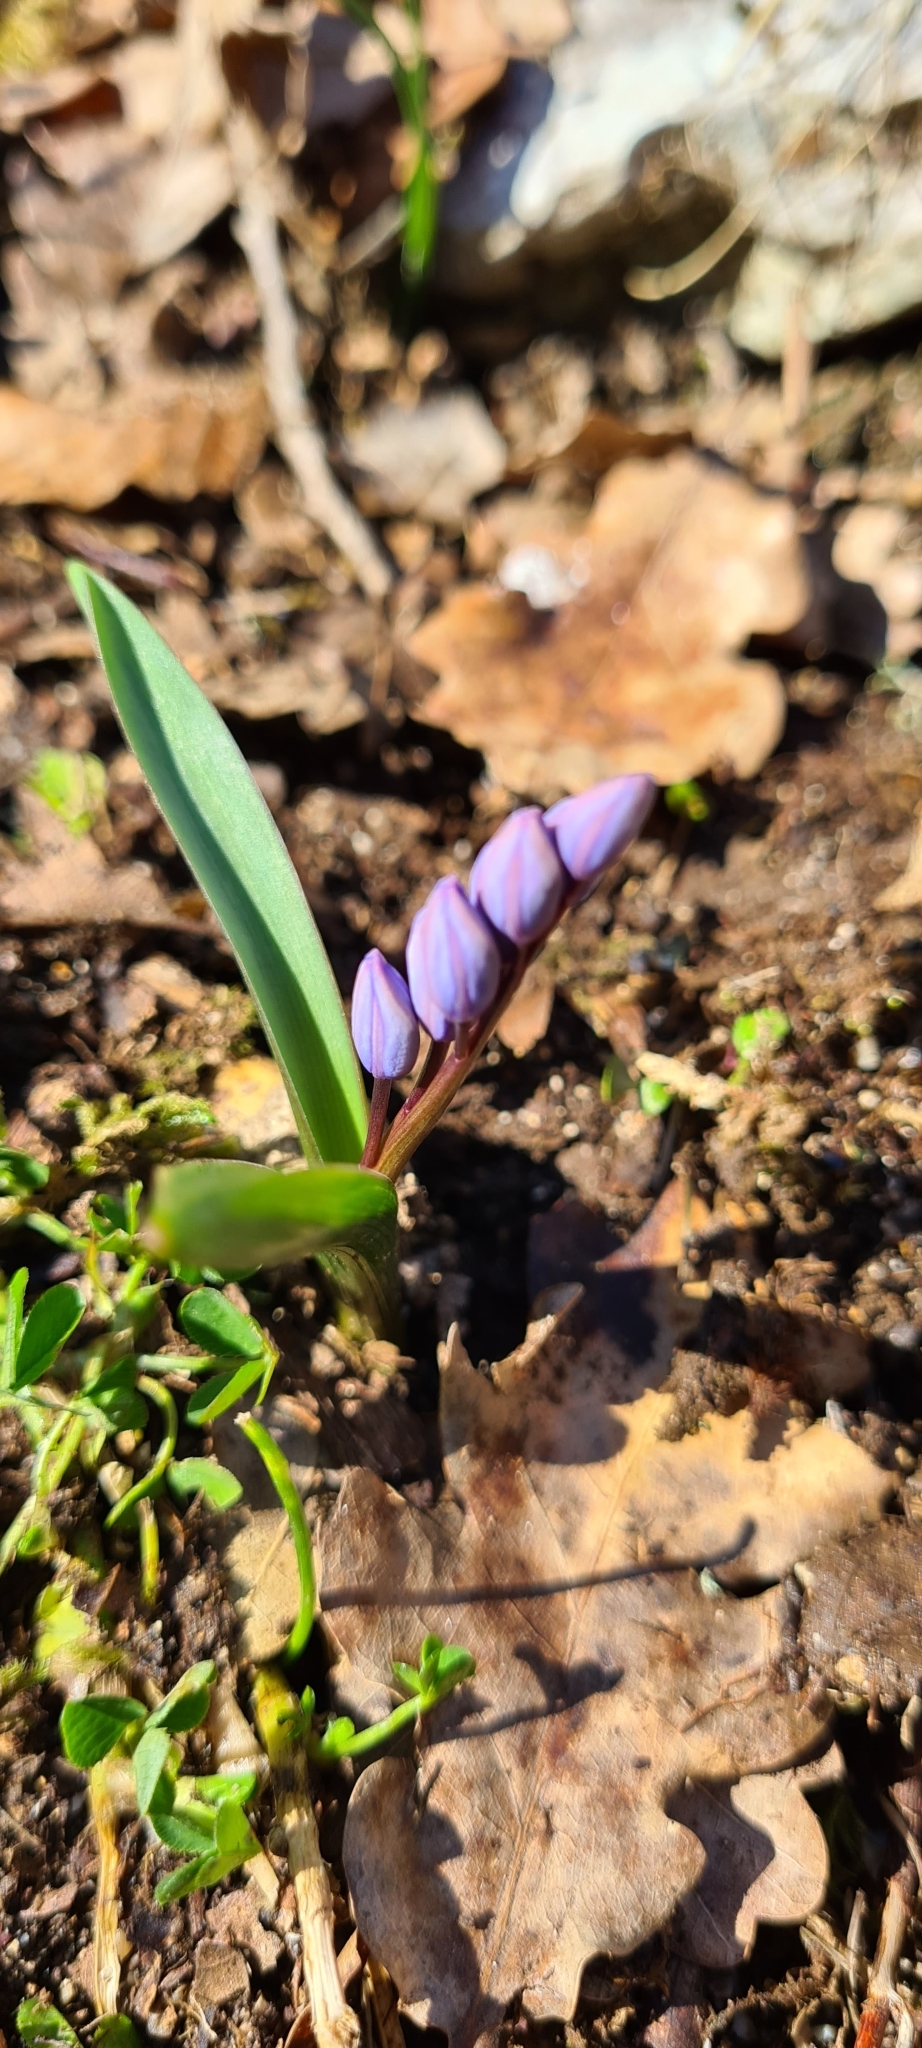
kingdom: Plantae
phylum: Tracheophyta
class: Liliopsida
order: Asparagales
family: Asparagaceae
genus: Scilla
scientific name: Scilla bifolia
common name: Alpine squill
